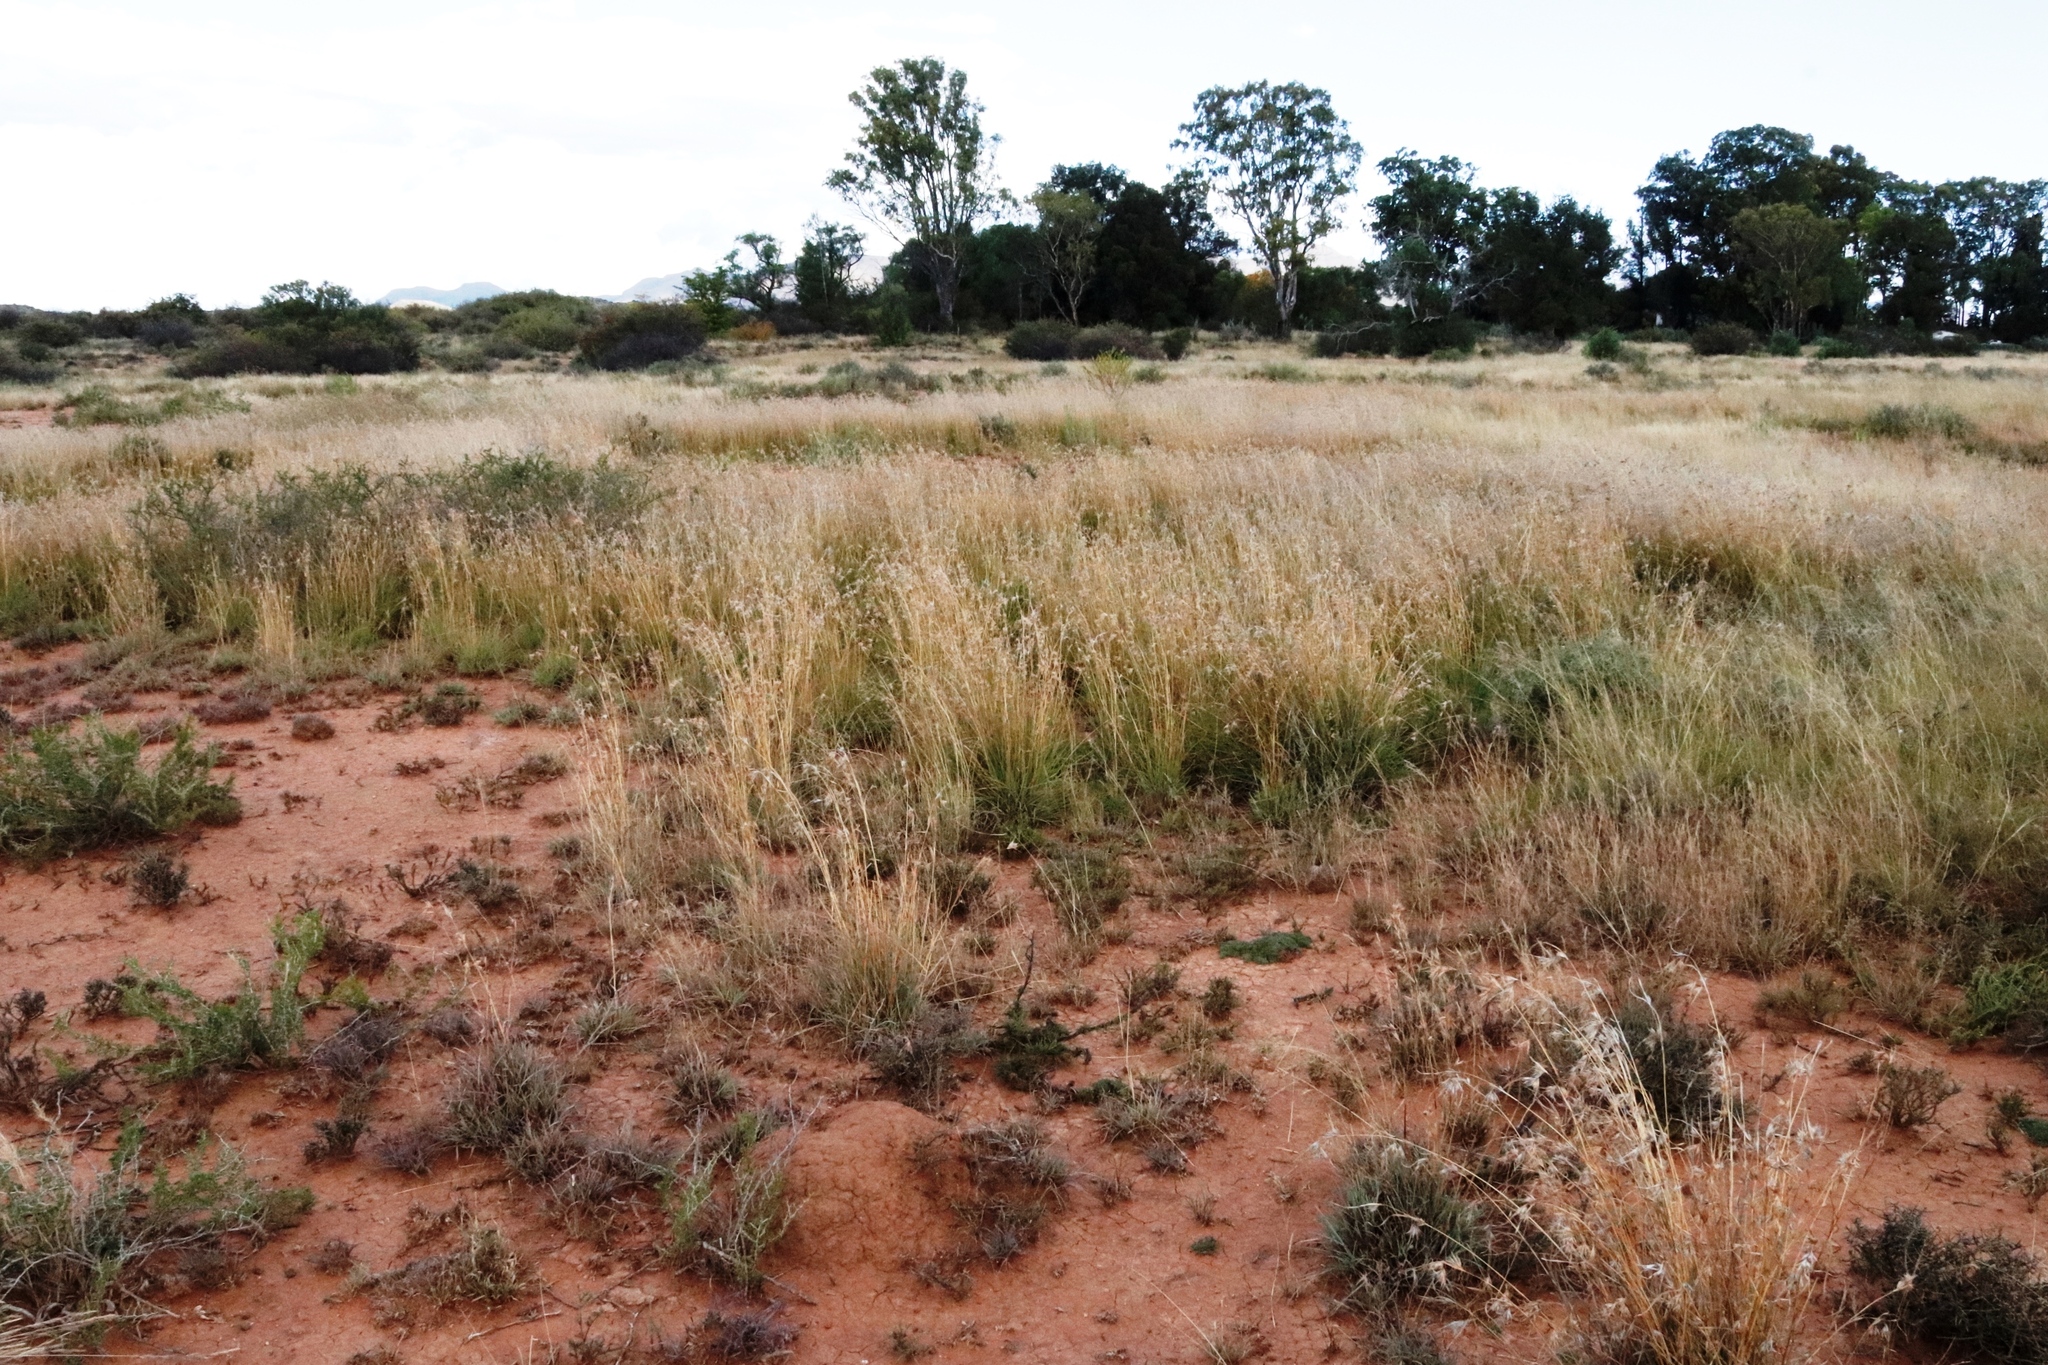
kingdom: Plantae
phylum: Tracheophyta
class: Liliopsida
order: Poales
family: Poaceae
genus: Themeda
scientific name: Themeda triandra
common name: Kangaroo grass
